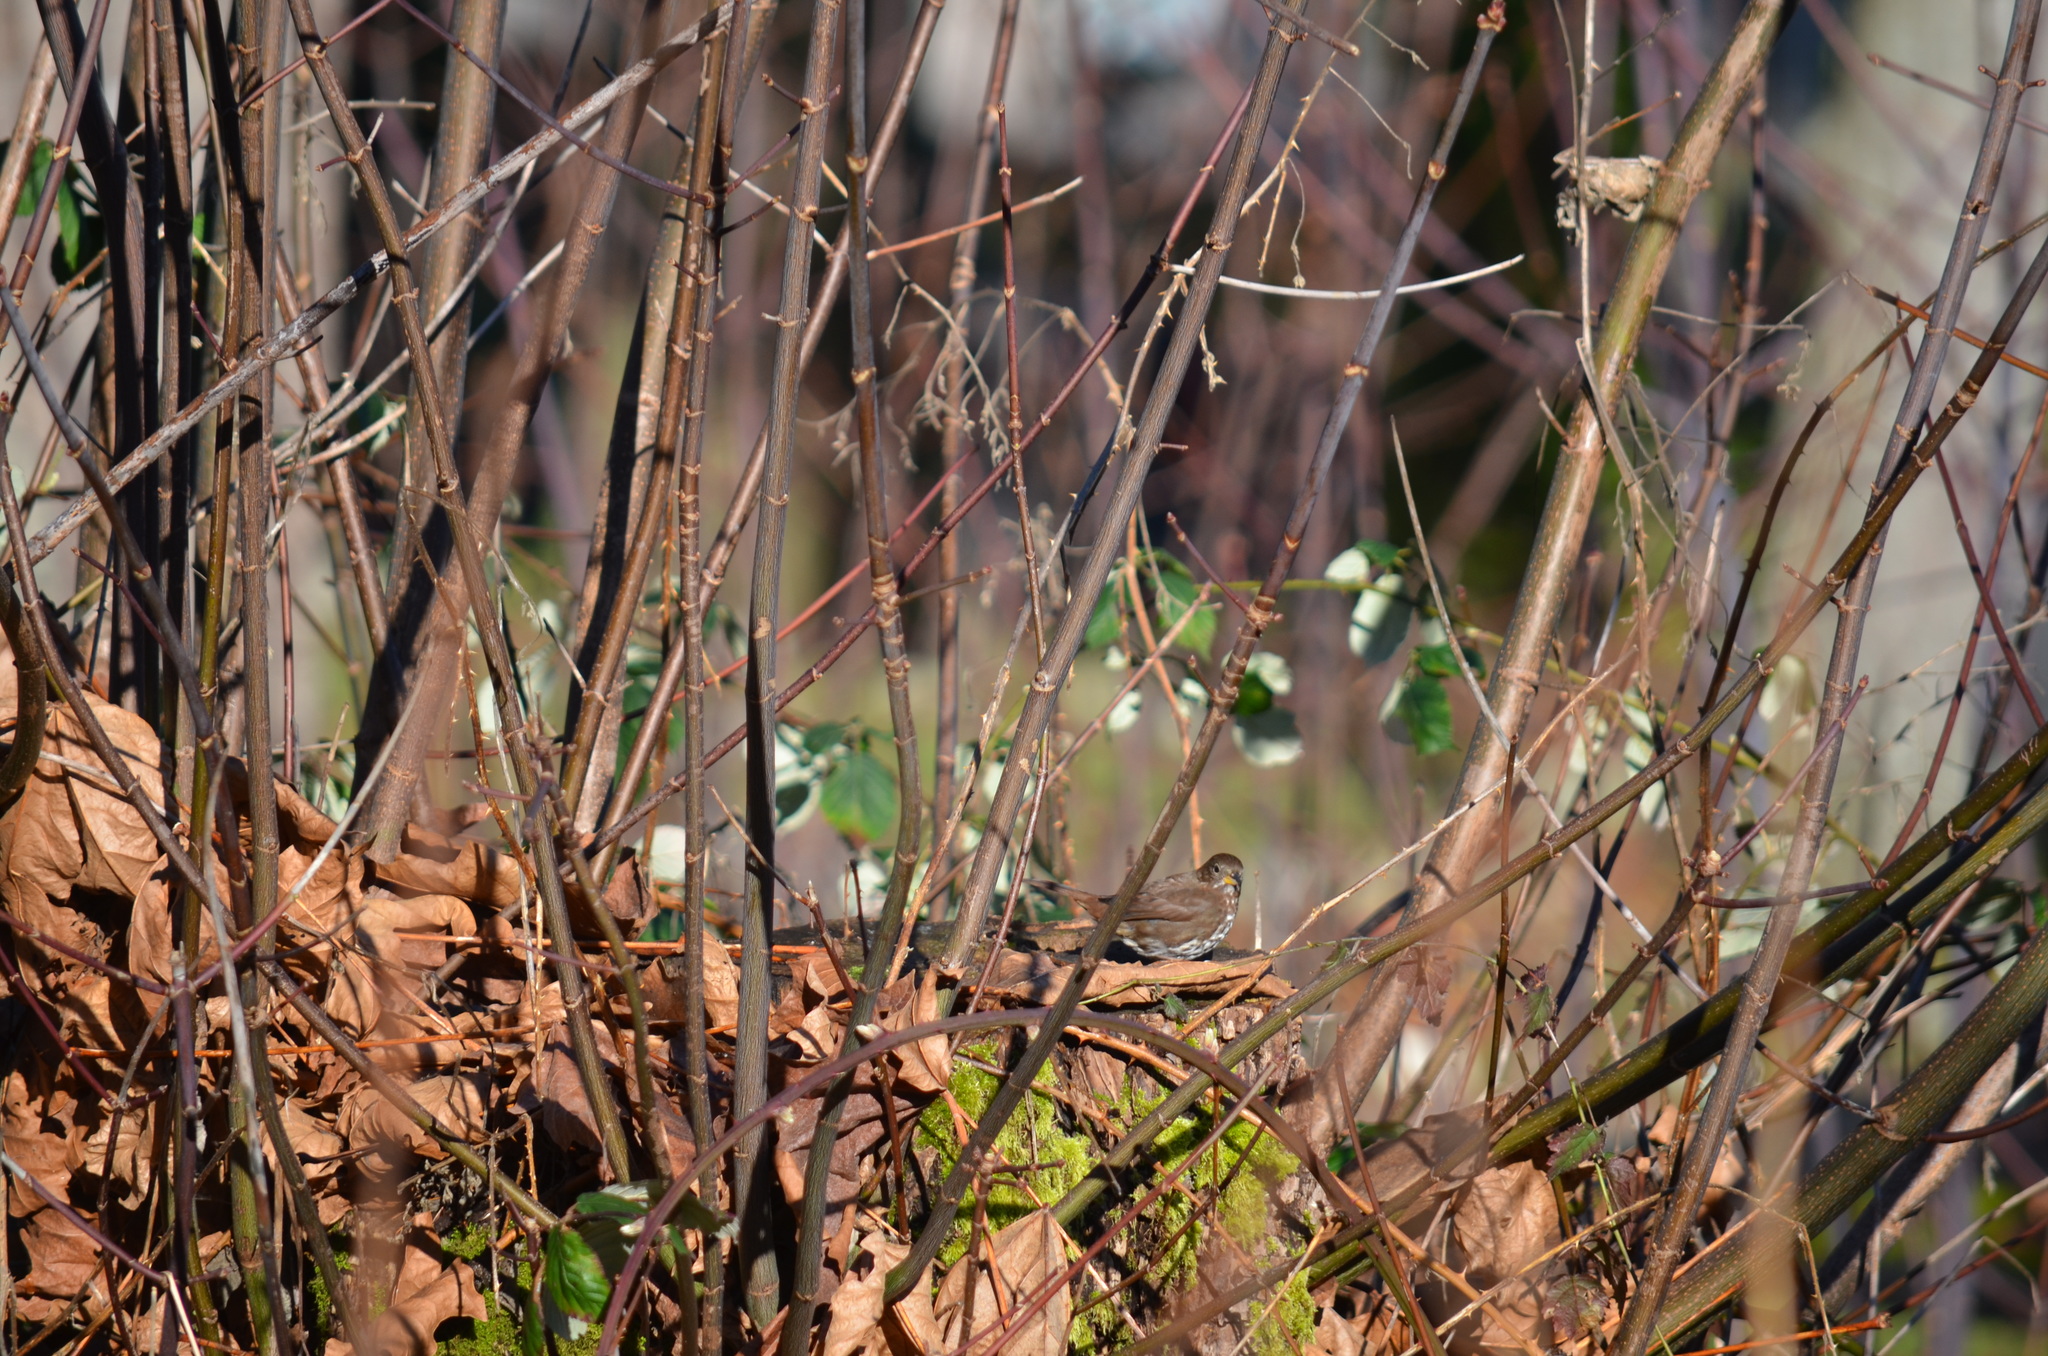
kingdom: Animalia
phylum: Chordata
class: Aves
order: Passeriformes
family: Passerellidae
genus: Passerella
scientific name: Passerella iliaca
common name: Fox sparrow
